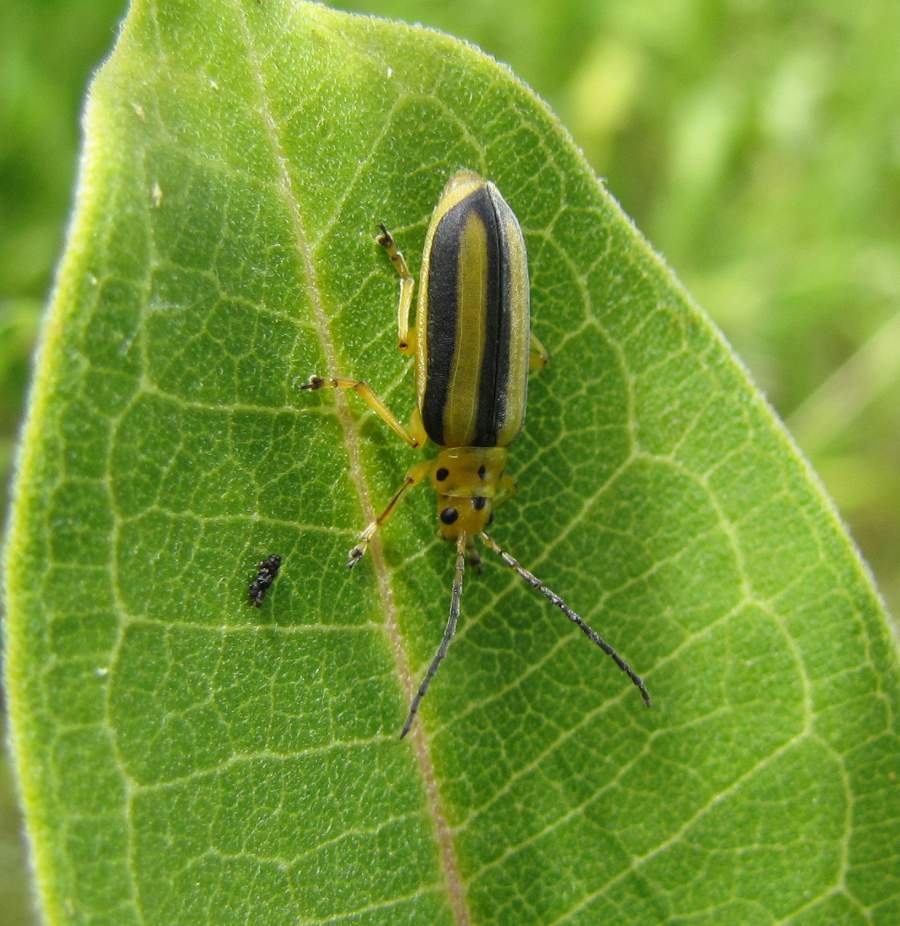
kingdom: Animalia
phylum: Arthropoda
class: Insecta
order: Coleoptera
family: Chrysomelidae
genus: Trirhabda
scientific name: Trirhabda canadensis
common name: Goldenrod leaf beetle
